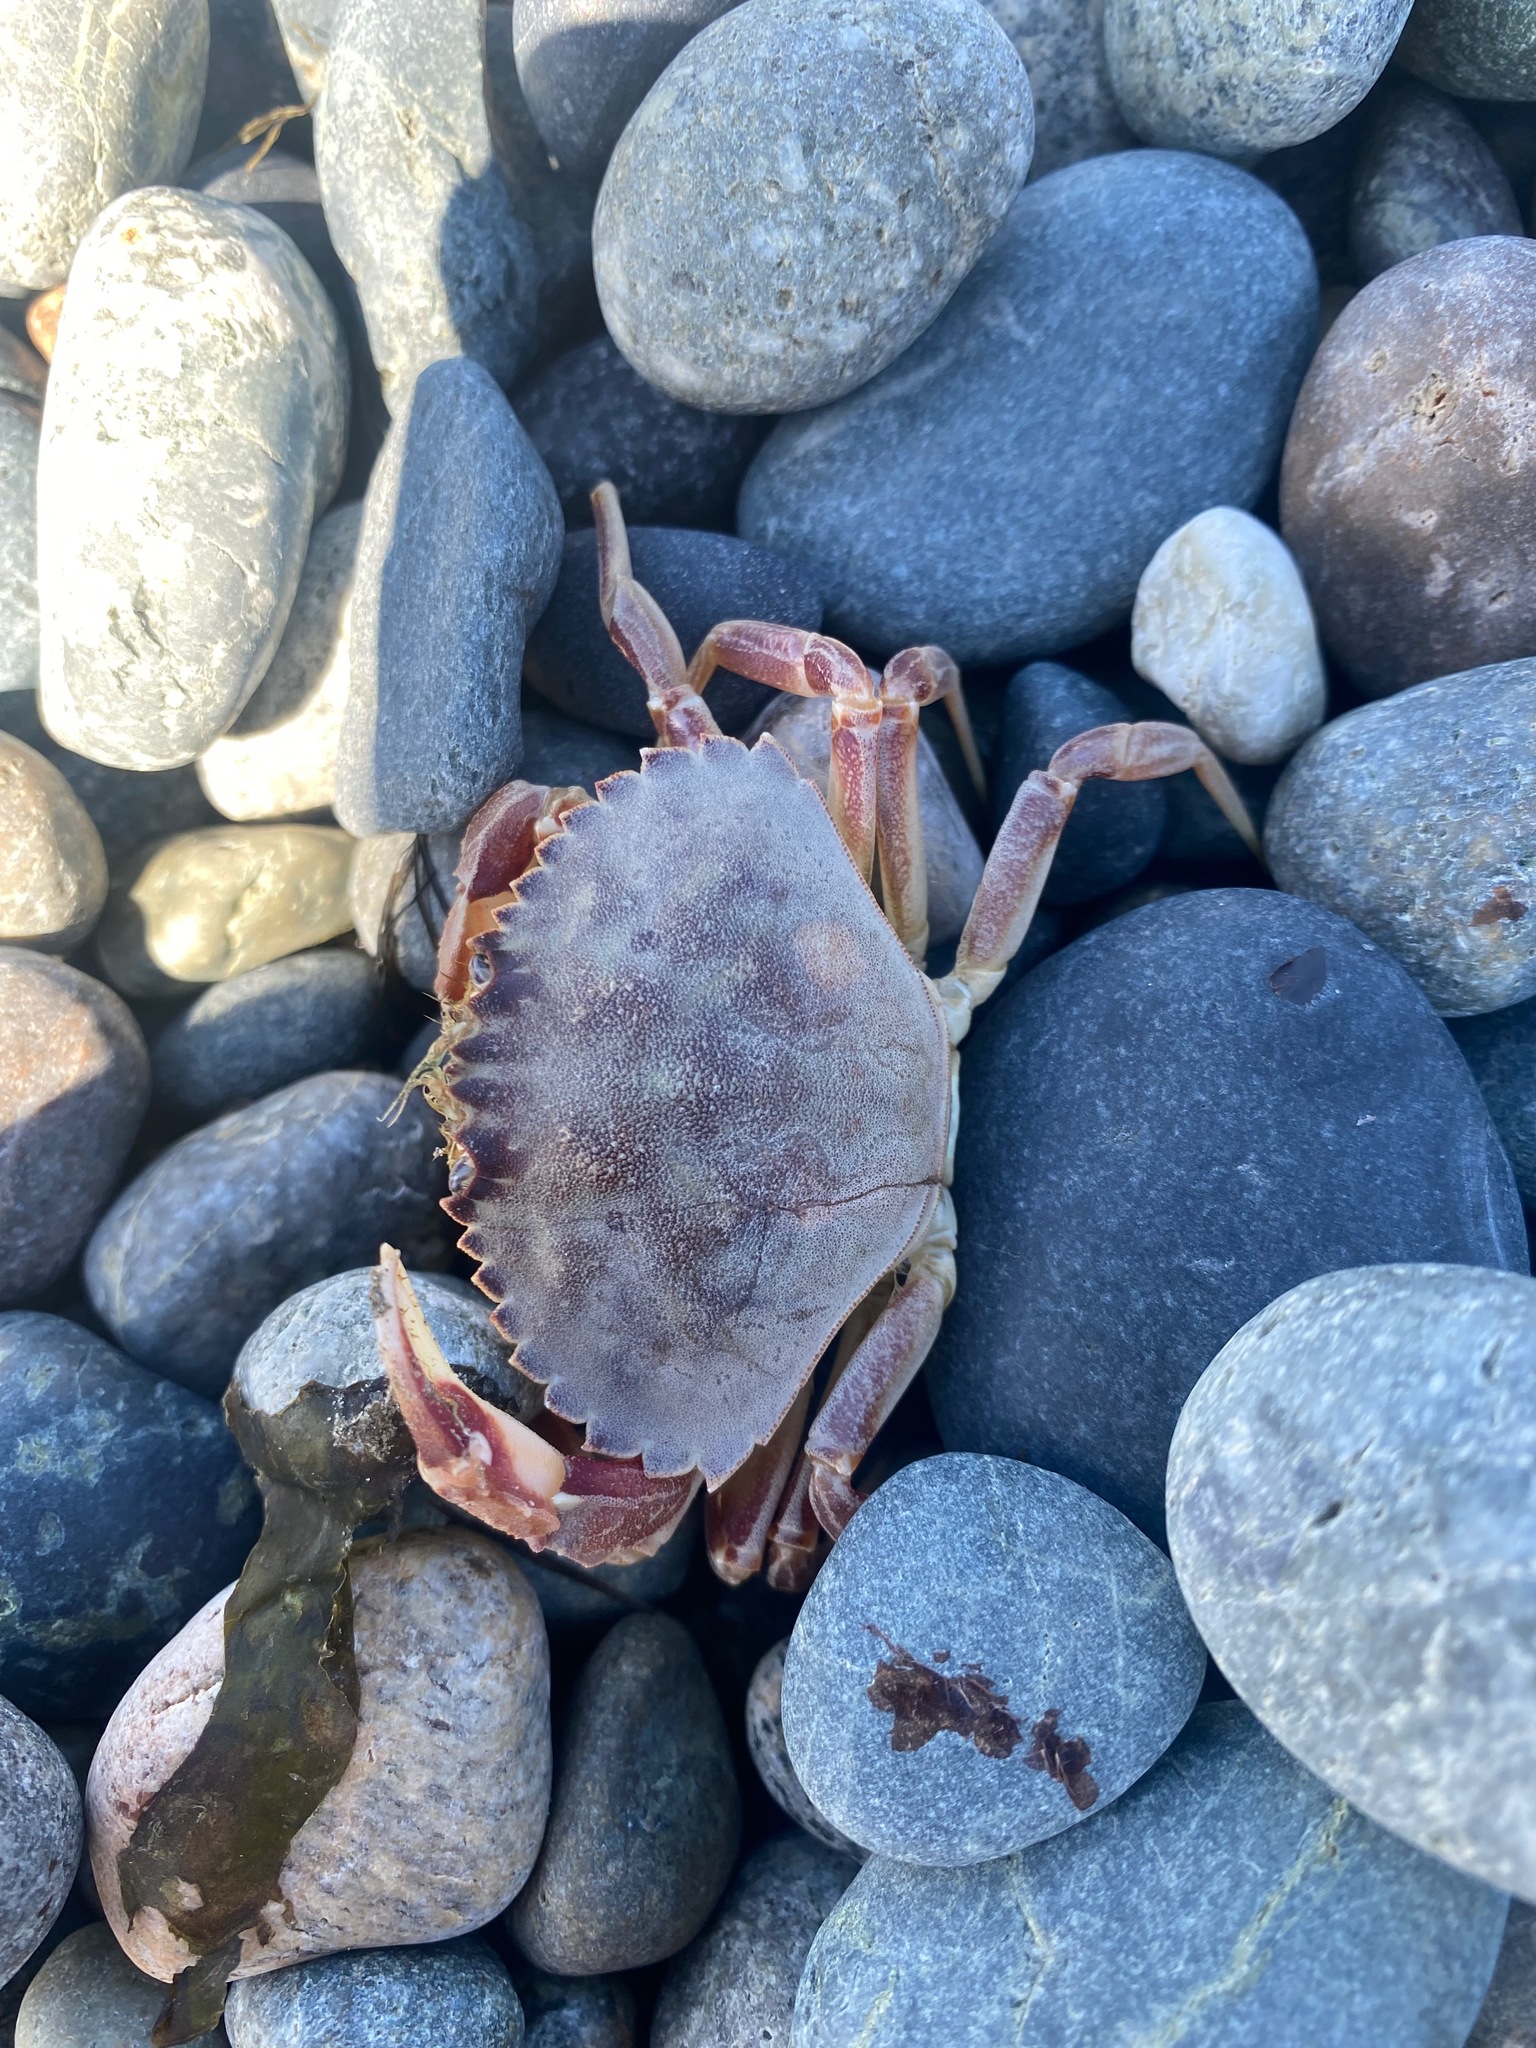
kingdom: Animalia
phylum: Arthropoda
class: Malacostraca
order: Decapoda
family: Cancridae
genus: Metacarcinus
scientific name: Metacarcinus gracilis
